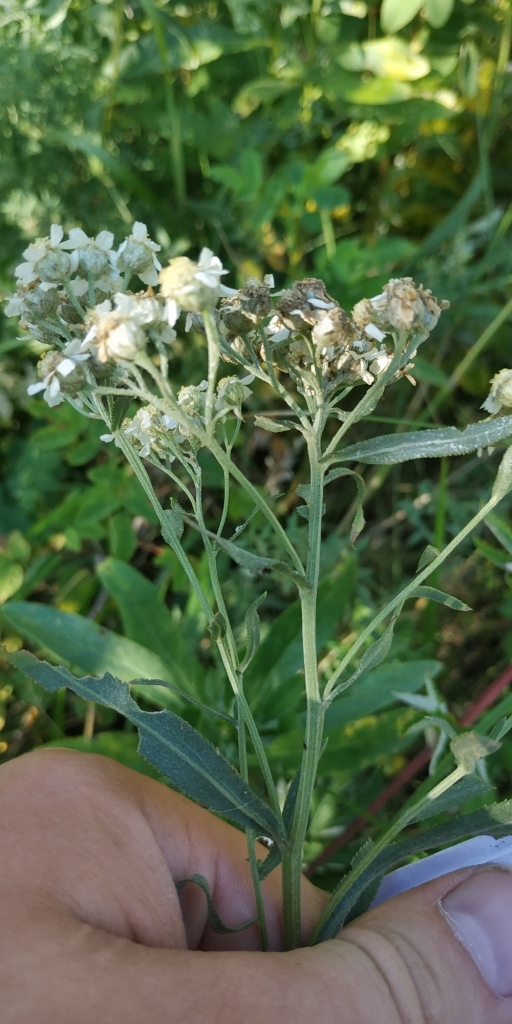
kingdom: Plantae
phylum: Tracheophyta
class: Magnoliopsida
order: Asterales
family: Asteraceae
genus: Achillea
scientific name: Achillea salicifolia
